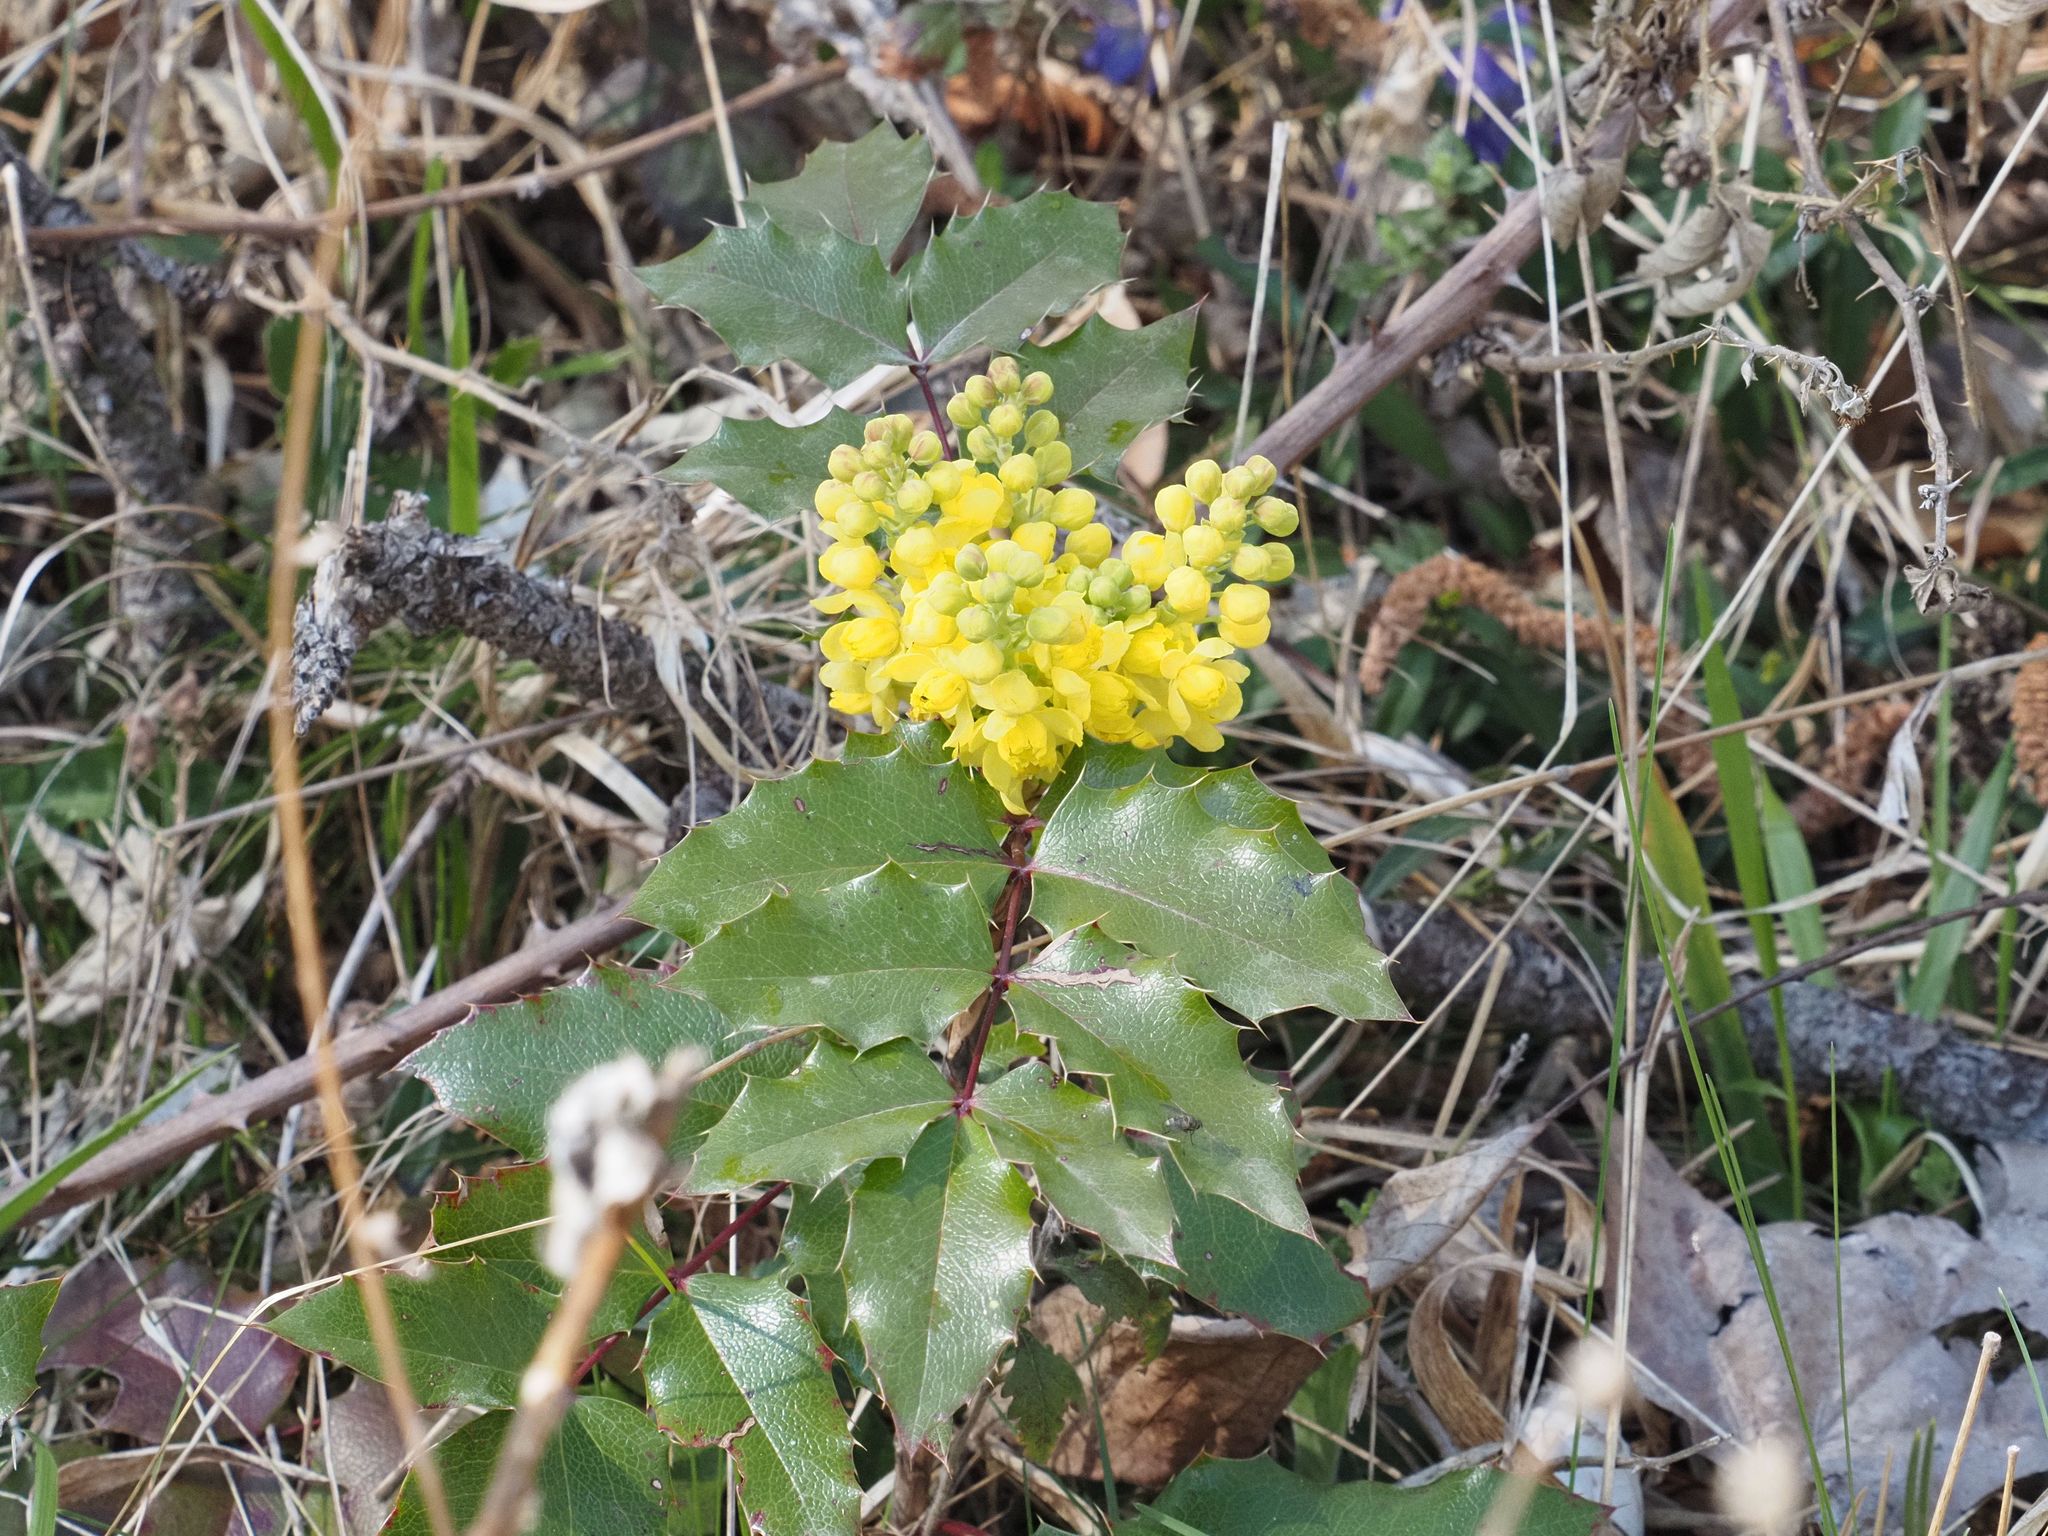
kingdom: Plantae
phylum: Tracheophyta
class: Magnoliopsida
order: Ranunculales
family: Berberidaceae
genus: Mahonia
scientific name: Mahonia aquifolium
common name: Oregon-grape
